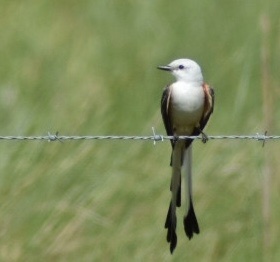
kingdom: Animalia
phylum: Chordata
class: Aves
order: Passeriformes
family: Tyrannidae
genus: Tyrannus
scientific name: Tyrannus forficatus
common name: Scissor-tailed flycatcher
